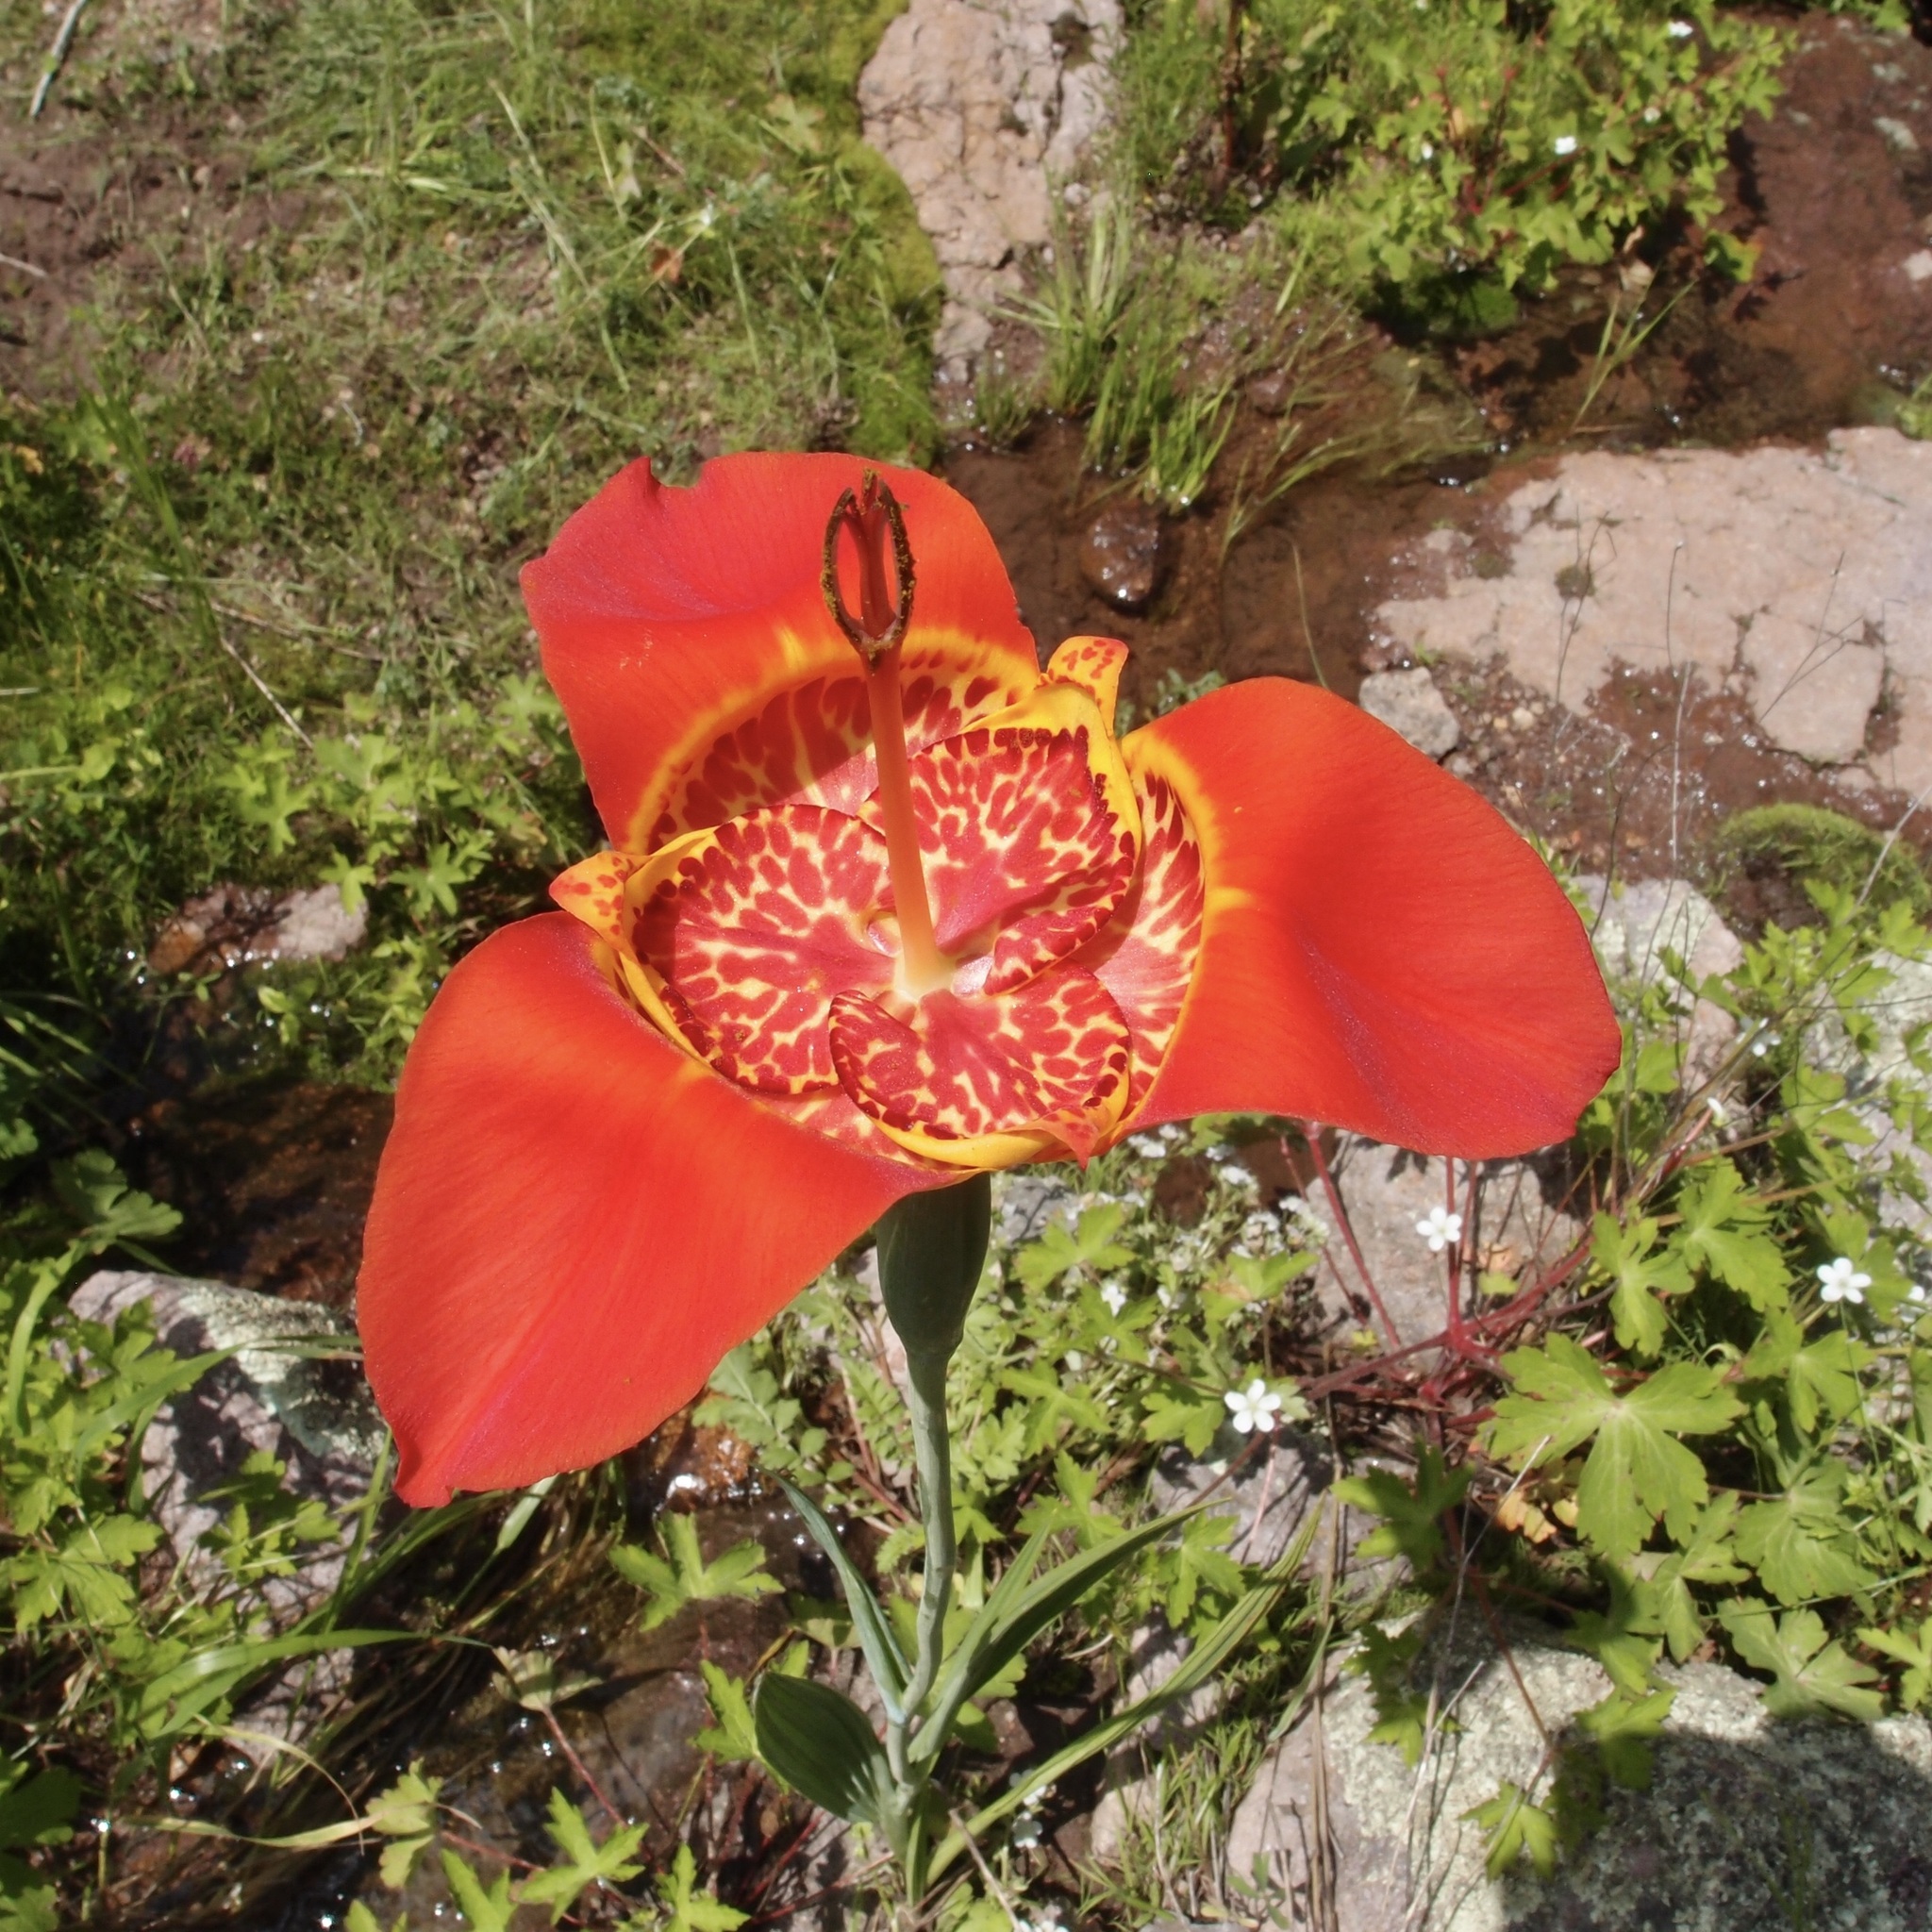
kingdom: Plantae
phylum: Tracheophyta
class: Liliopsida
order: Asparagales
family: Iridaceae
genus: Tigridia
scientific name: Tigridia pavonia
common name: Peacock-flower
